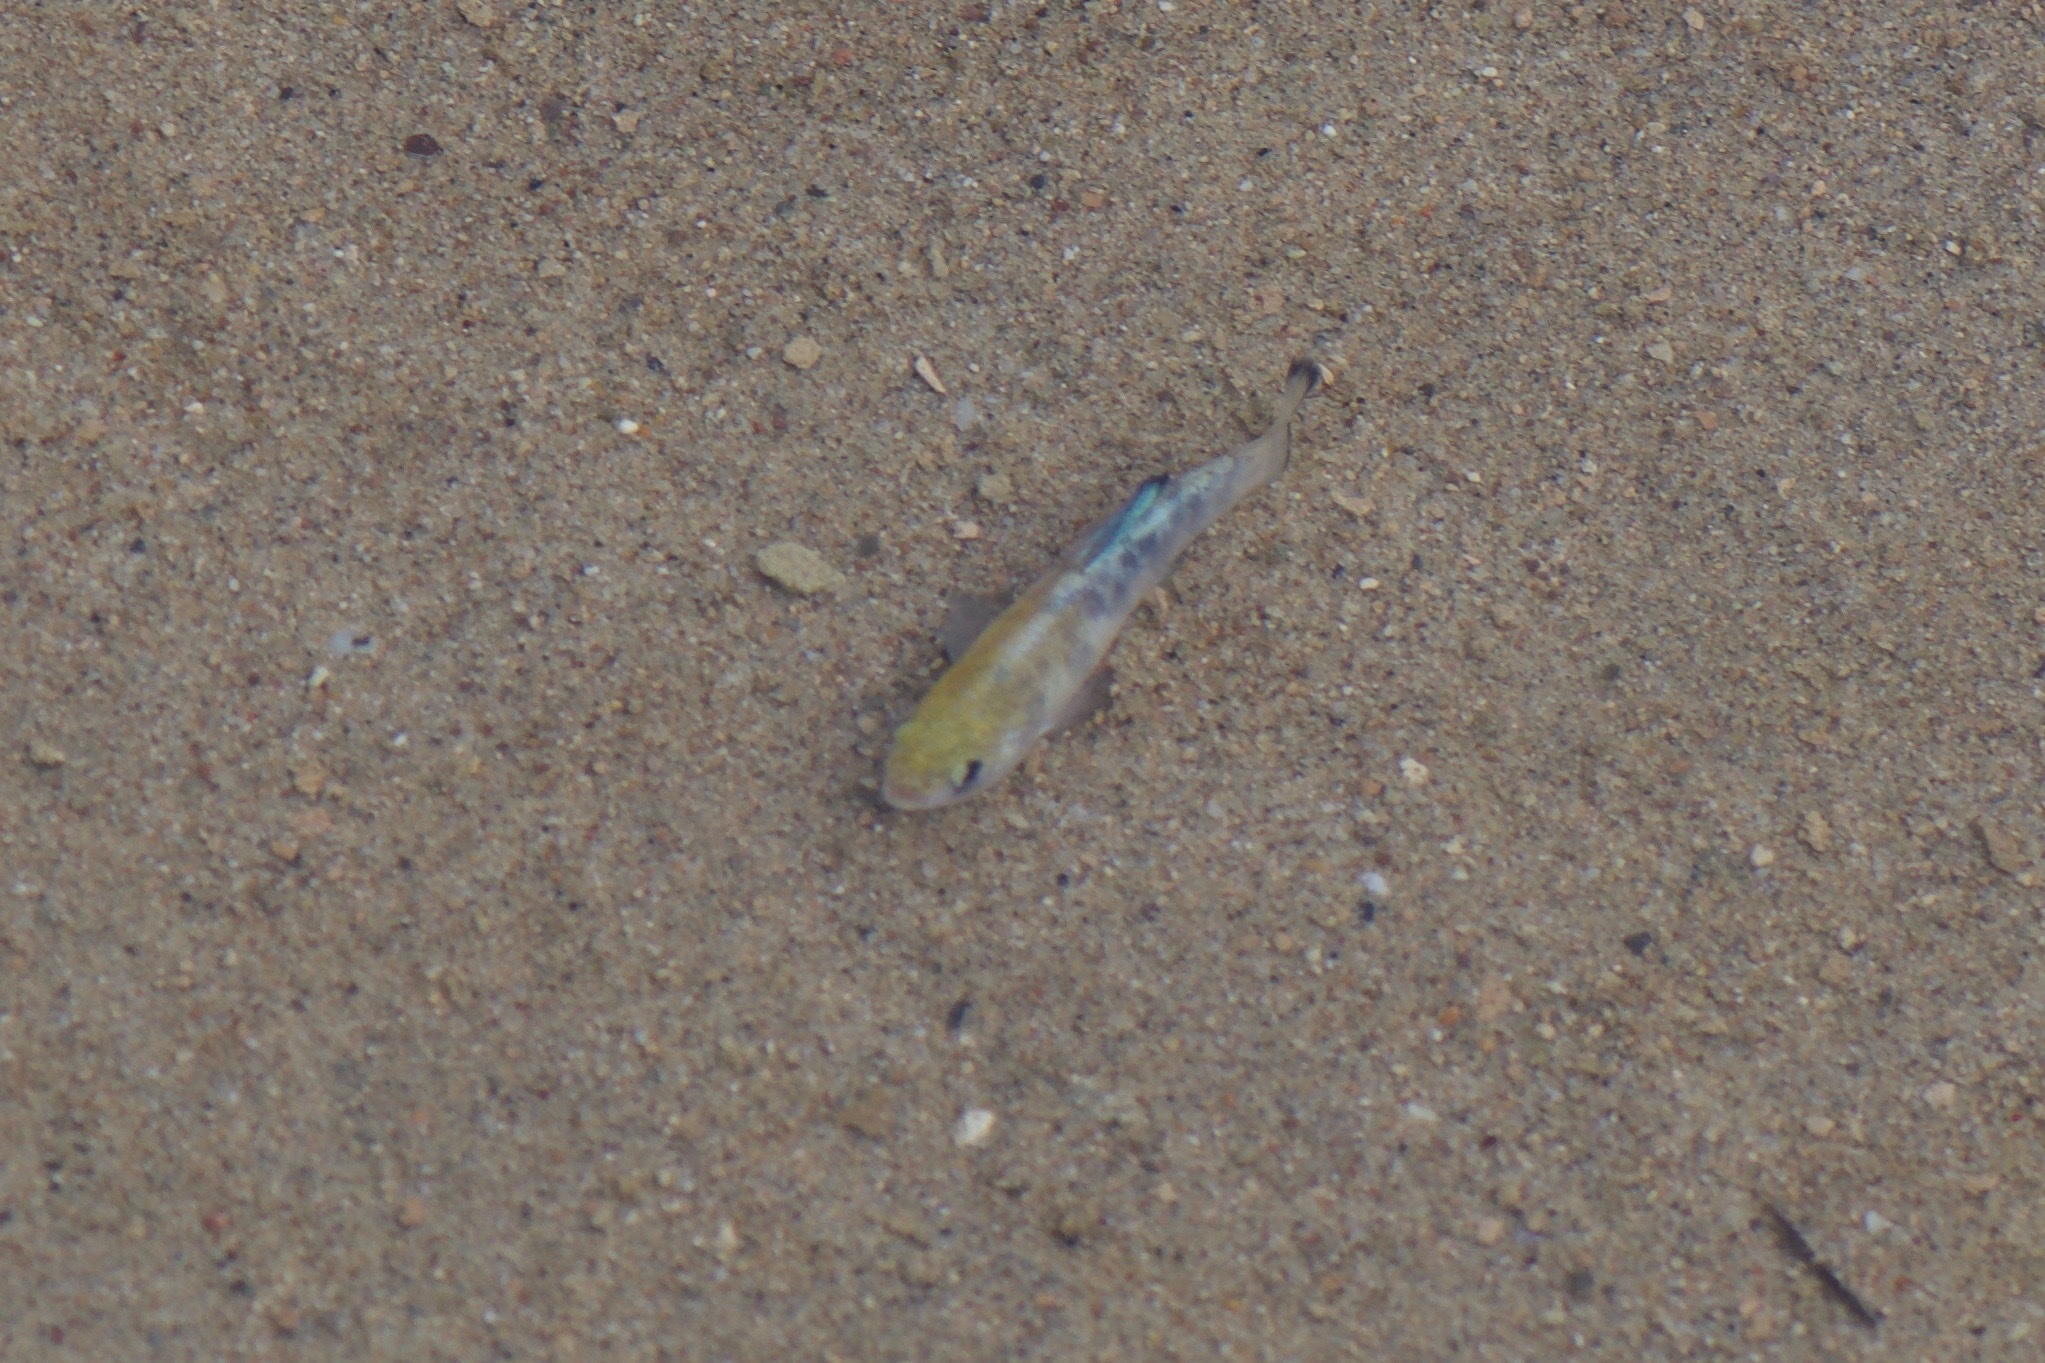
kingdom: Animalia
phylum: Chordata
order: Cyprinodontiformes
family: Cyprinodontidae
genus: Cyprinodon
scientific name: Cyprinodon salinus
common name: Cottonball marsh pupfish
